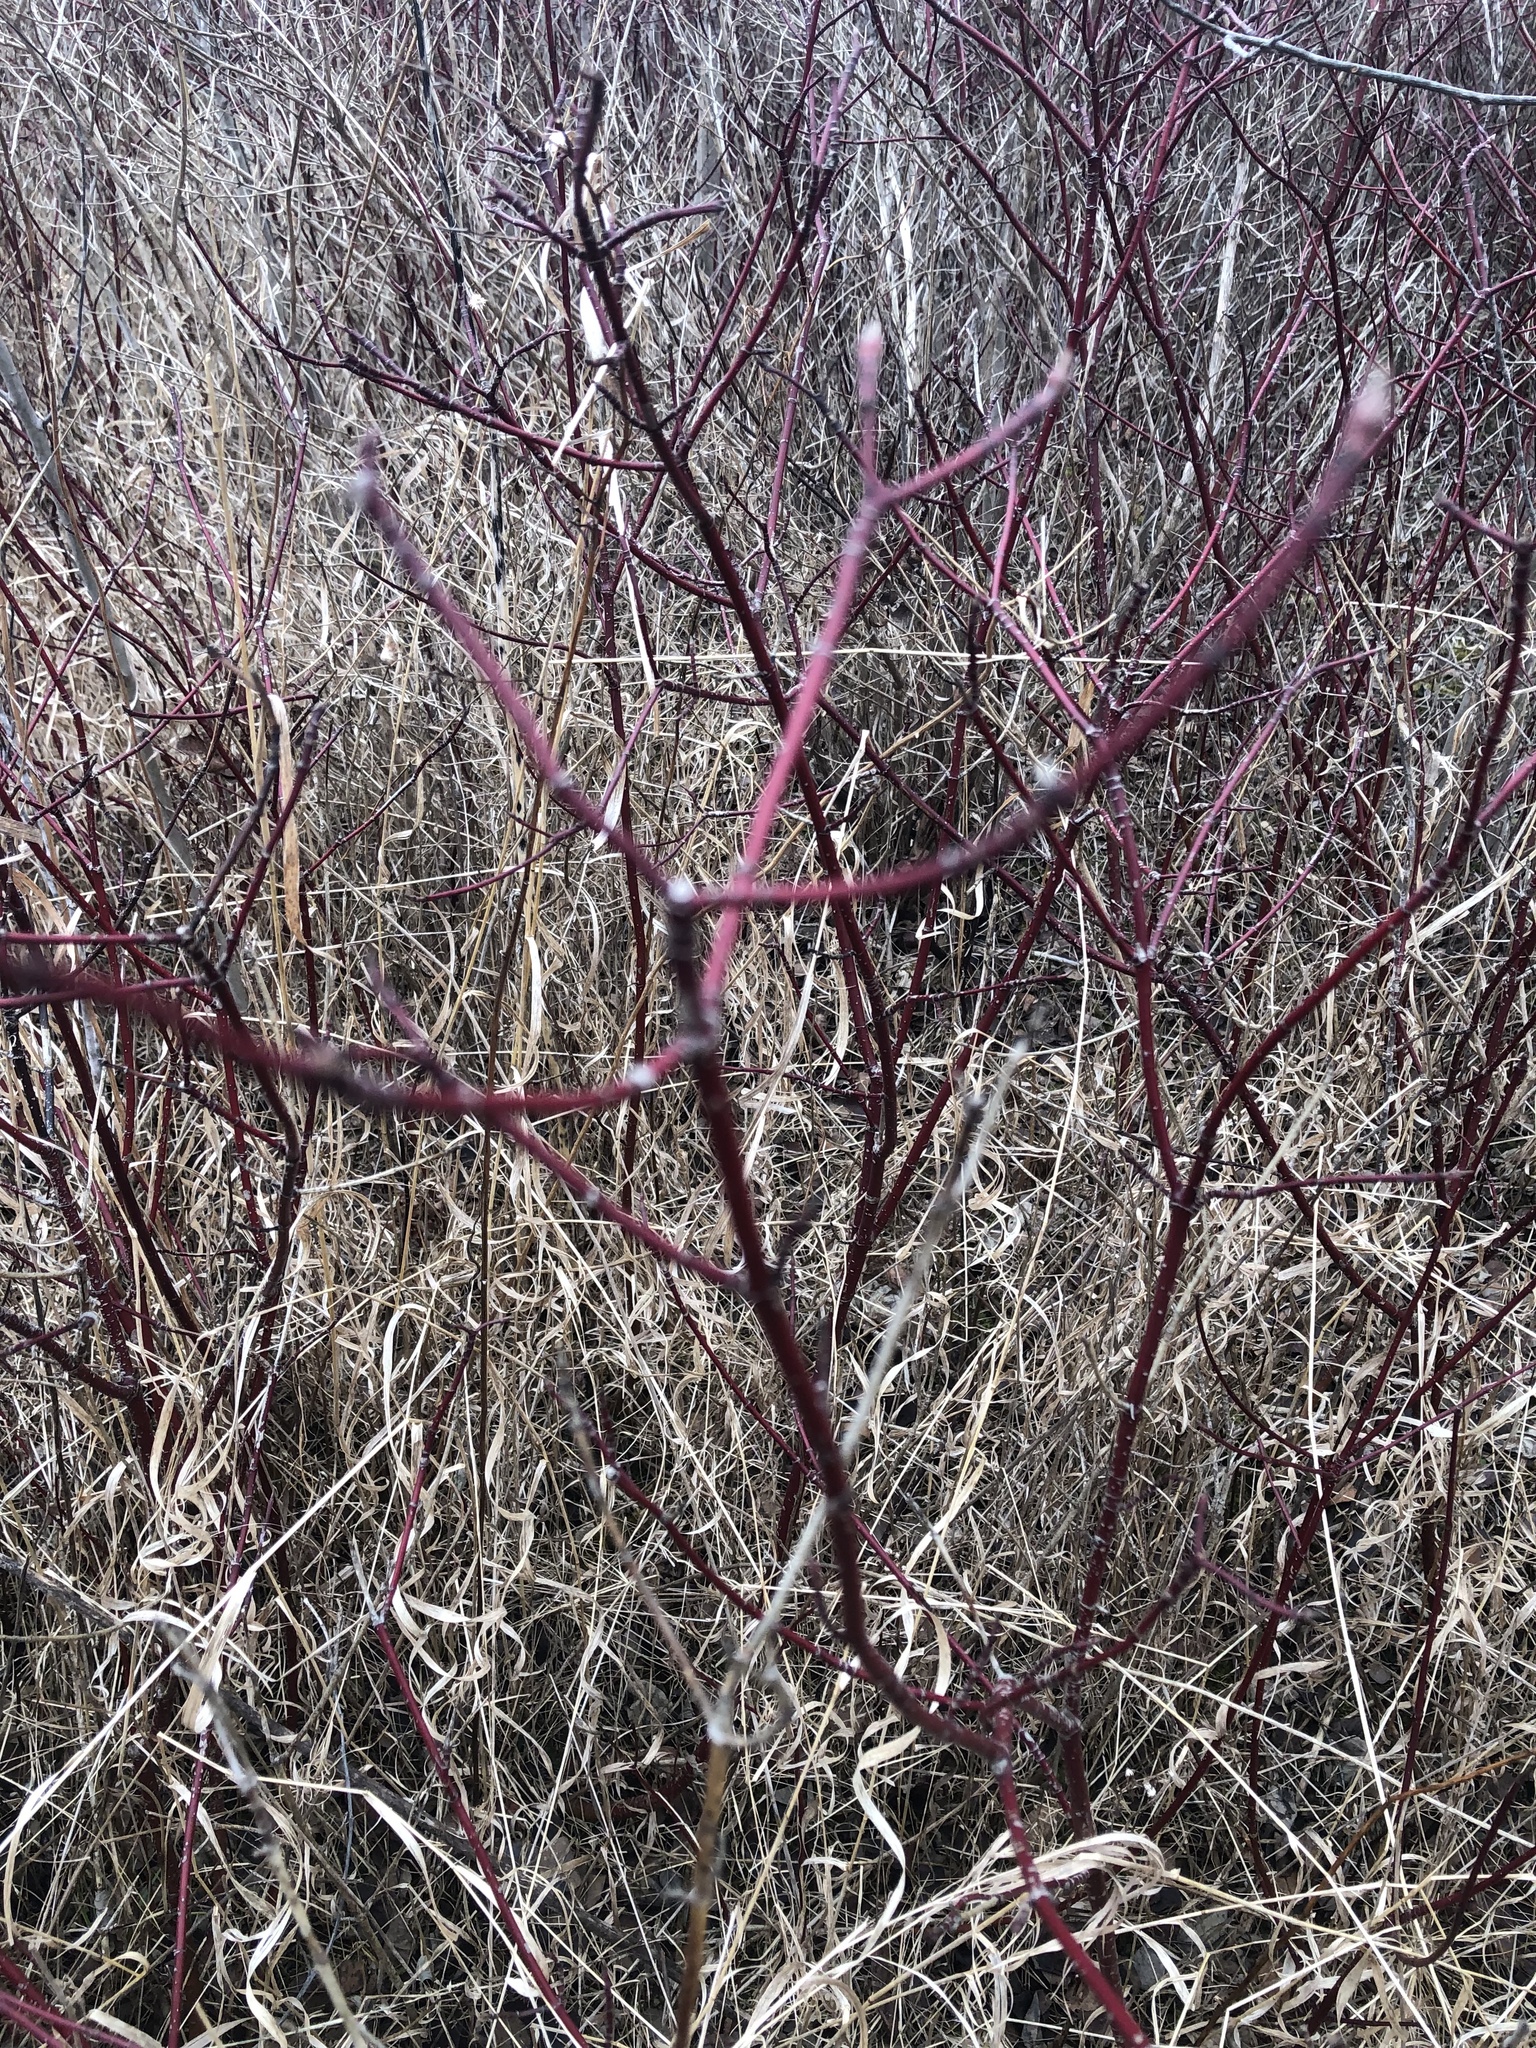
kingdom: Plantae
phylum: Tracheophyta
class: Magnoliopsida
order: Cornales
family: Cornaceae
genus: Cornus
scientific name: Cornus sericea
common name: Red-osier dogwood
